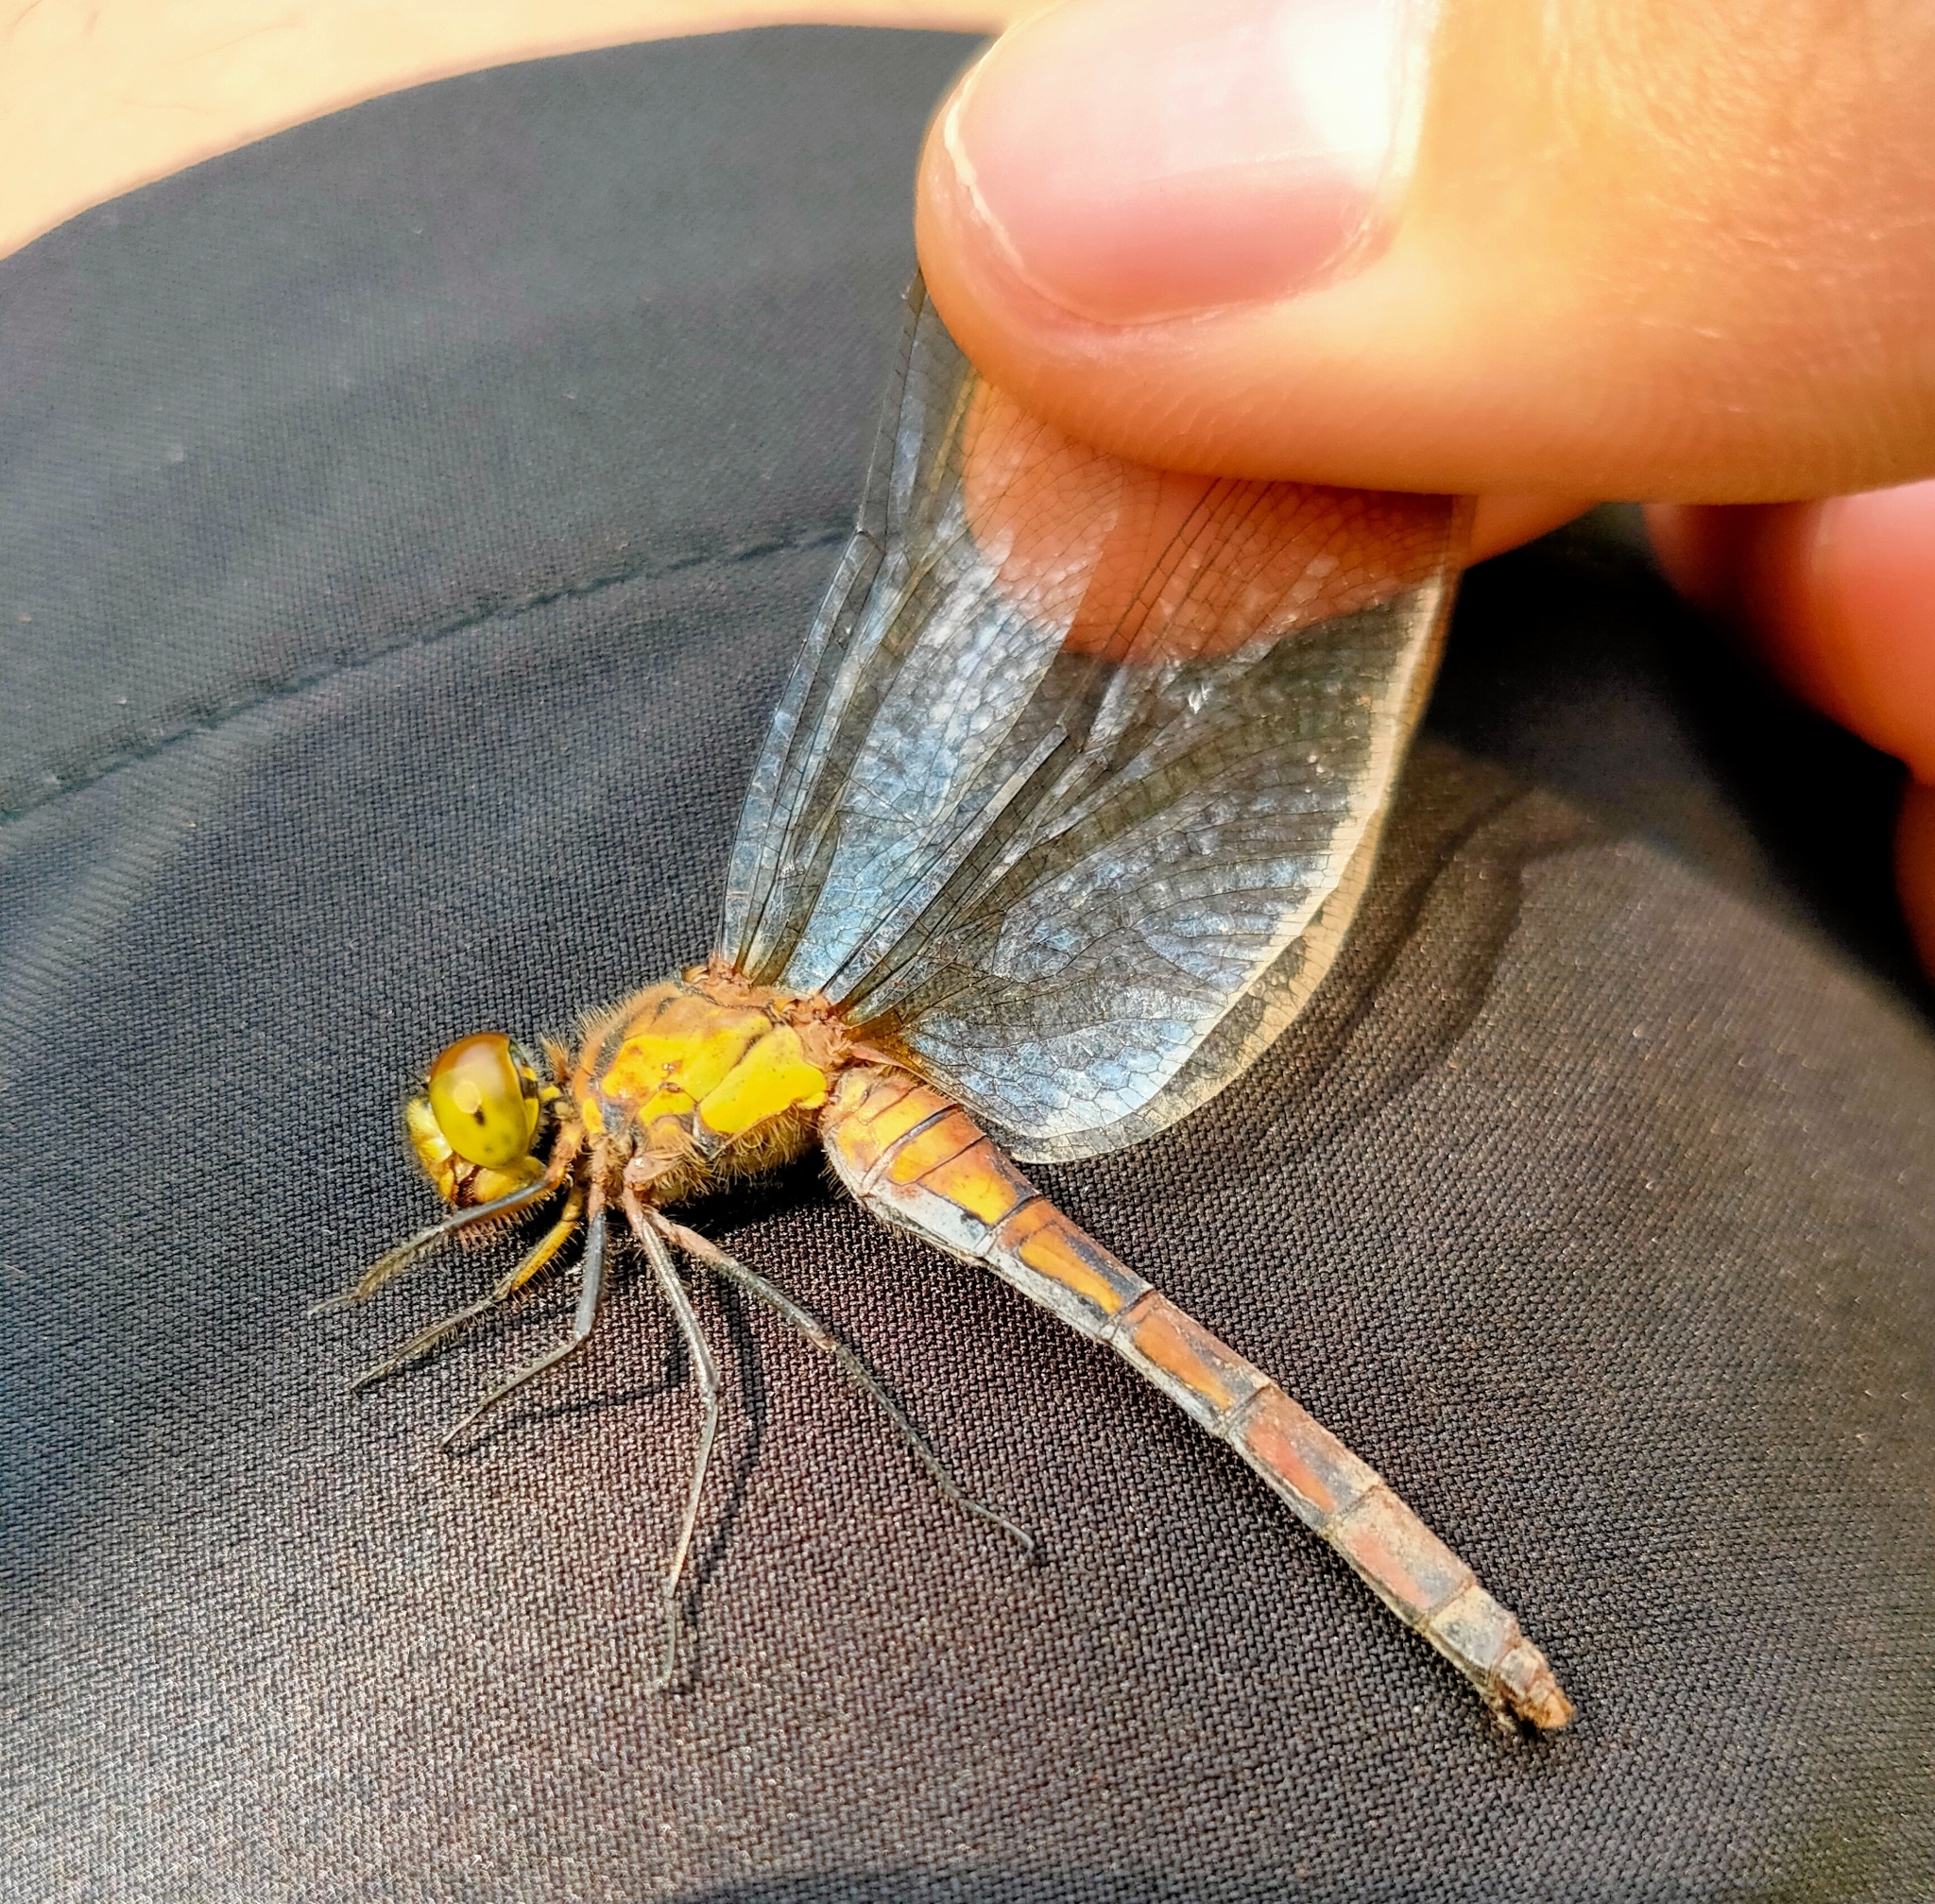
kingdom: Animalia
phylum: Arthropoda
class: Insecta
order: Odonata
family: Libellulidae
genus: Sympetrum
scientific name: Sympetrum eroticum
